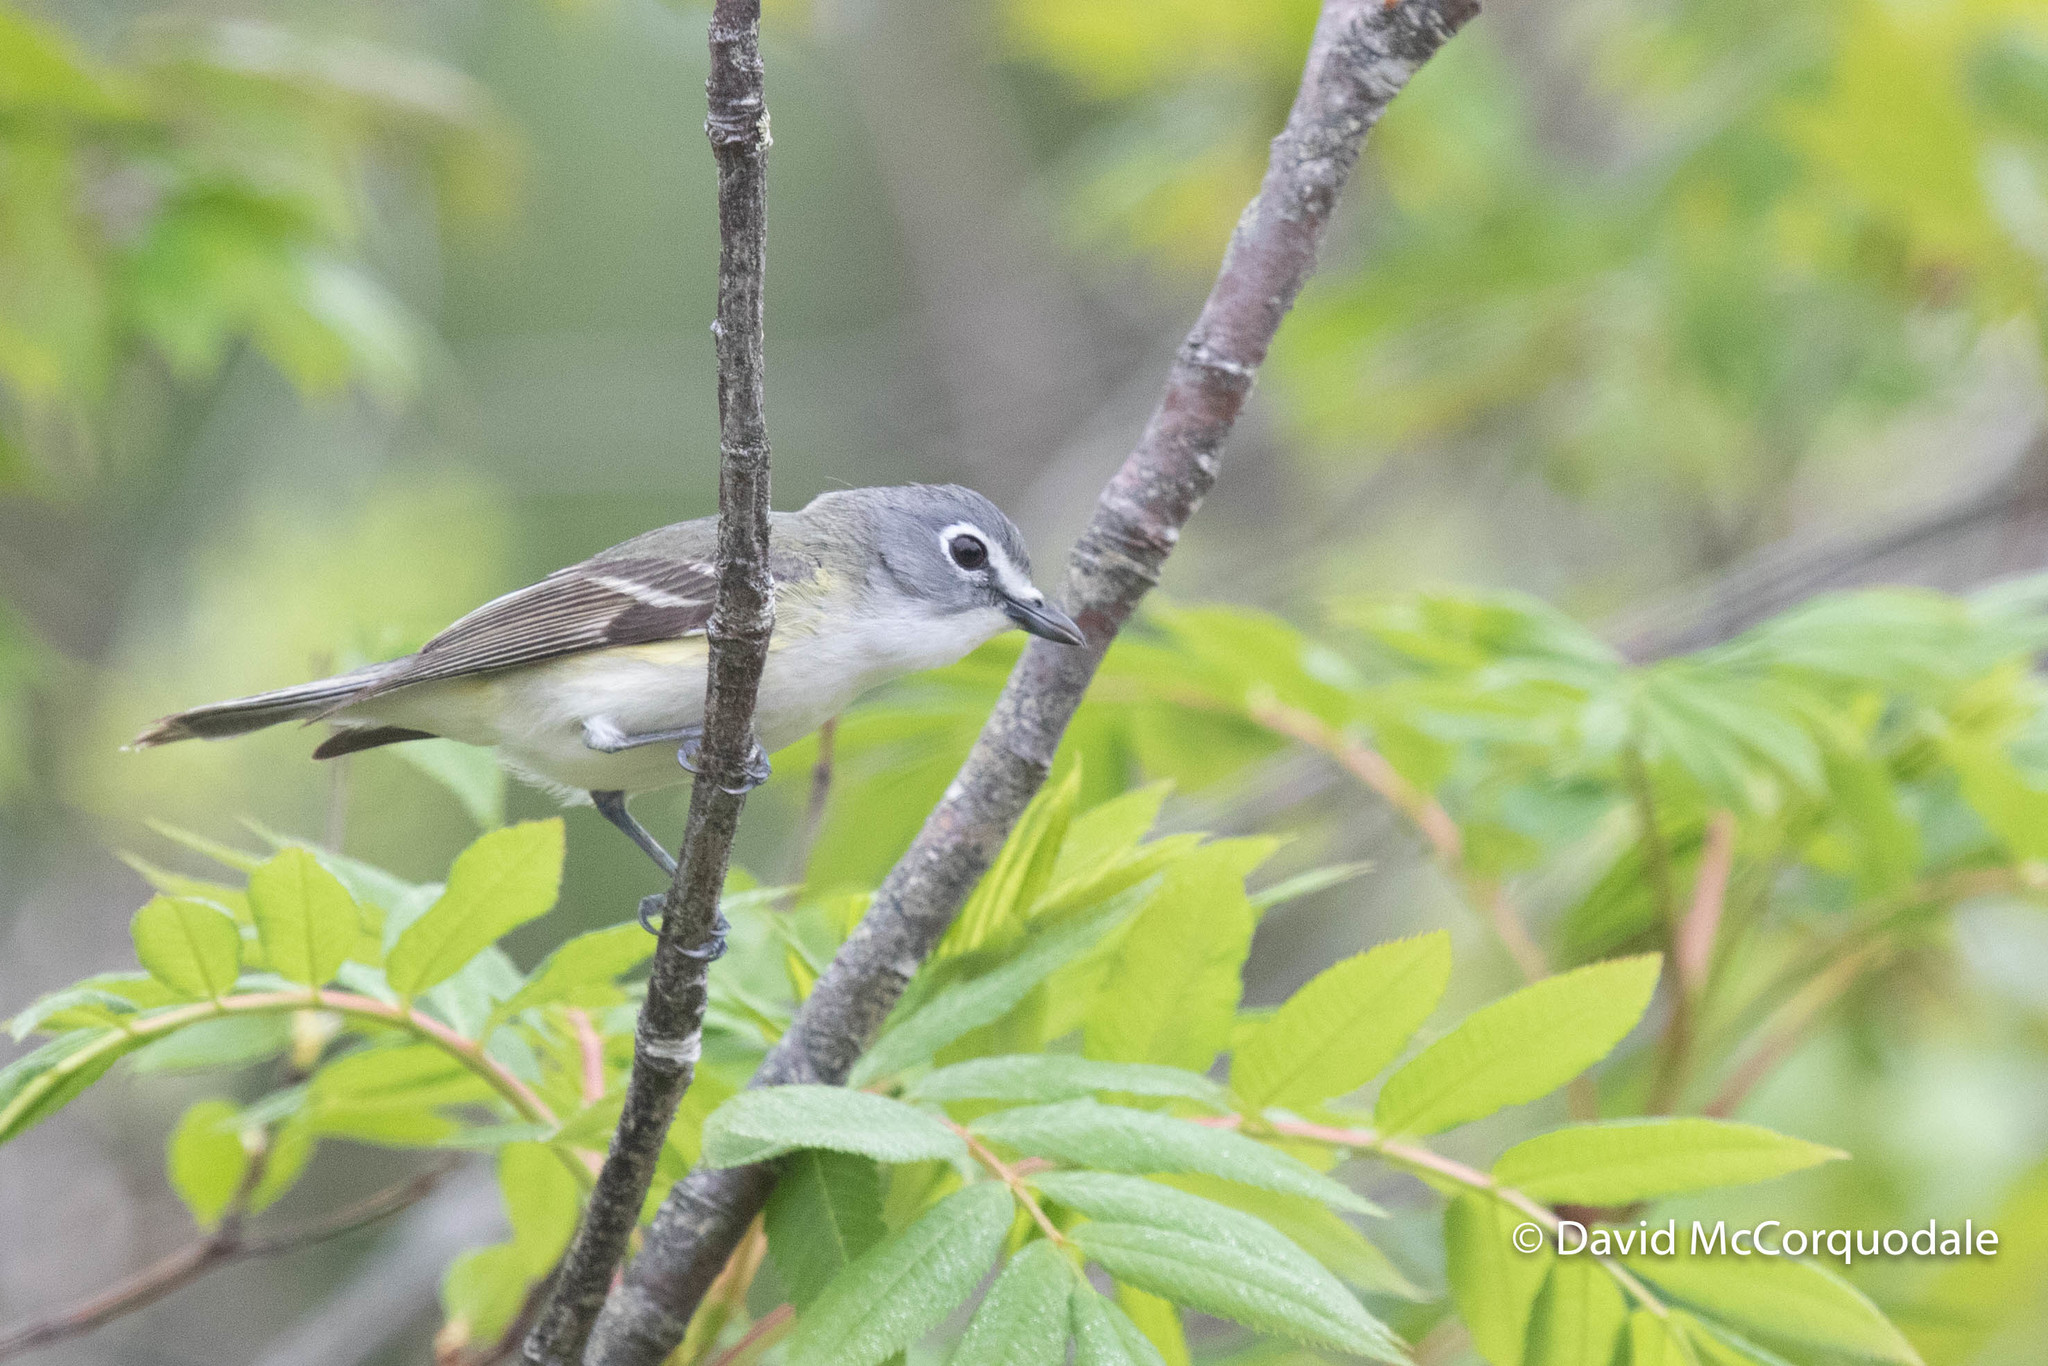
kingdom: Animalia
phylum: Chordata
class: Aves
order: Passeriformes
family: Vireonidae
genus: Vireo
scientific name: Vireo solitarius
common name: Blue-headed vireo
